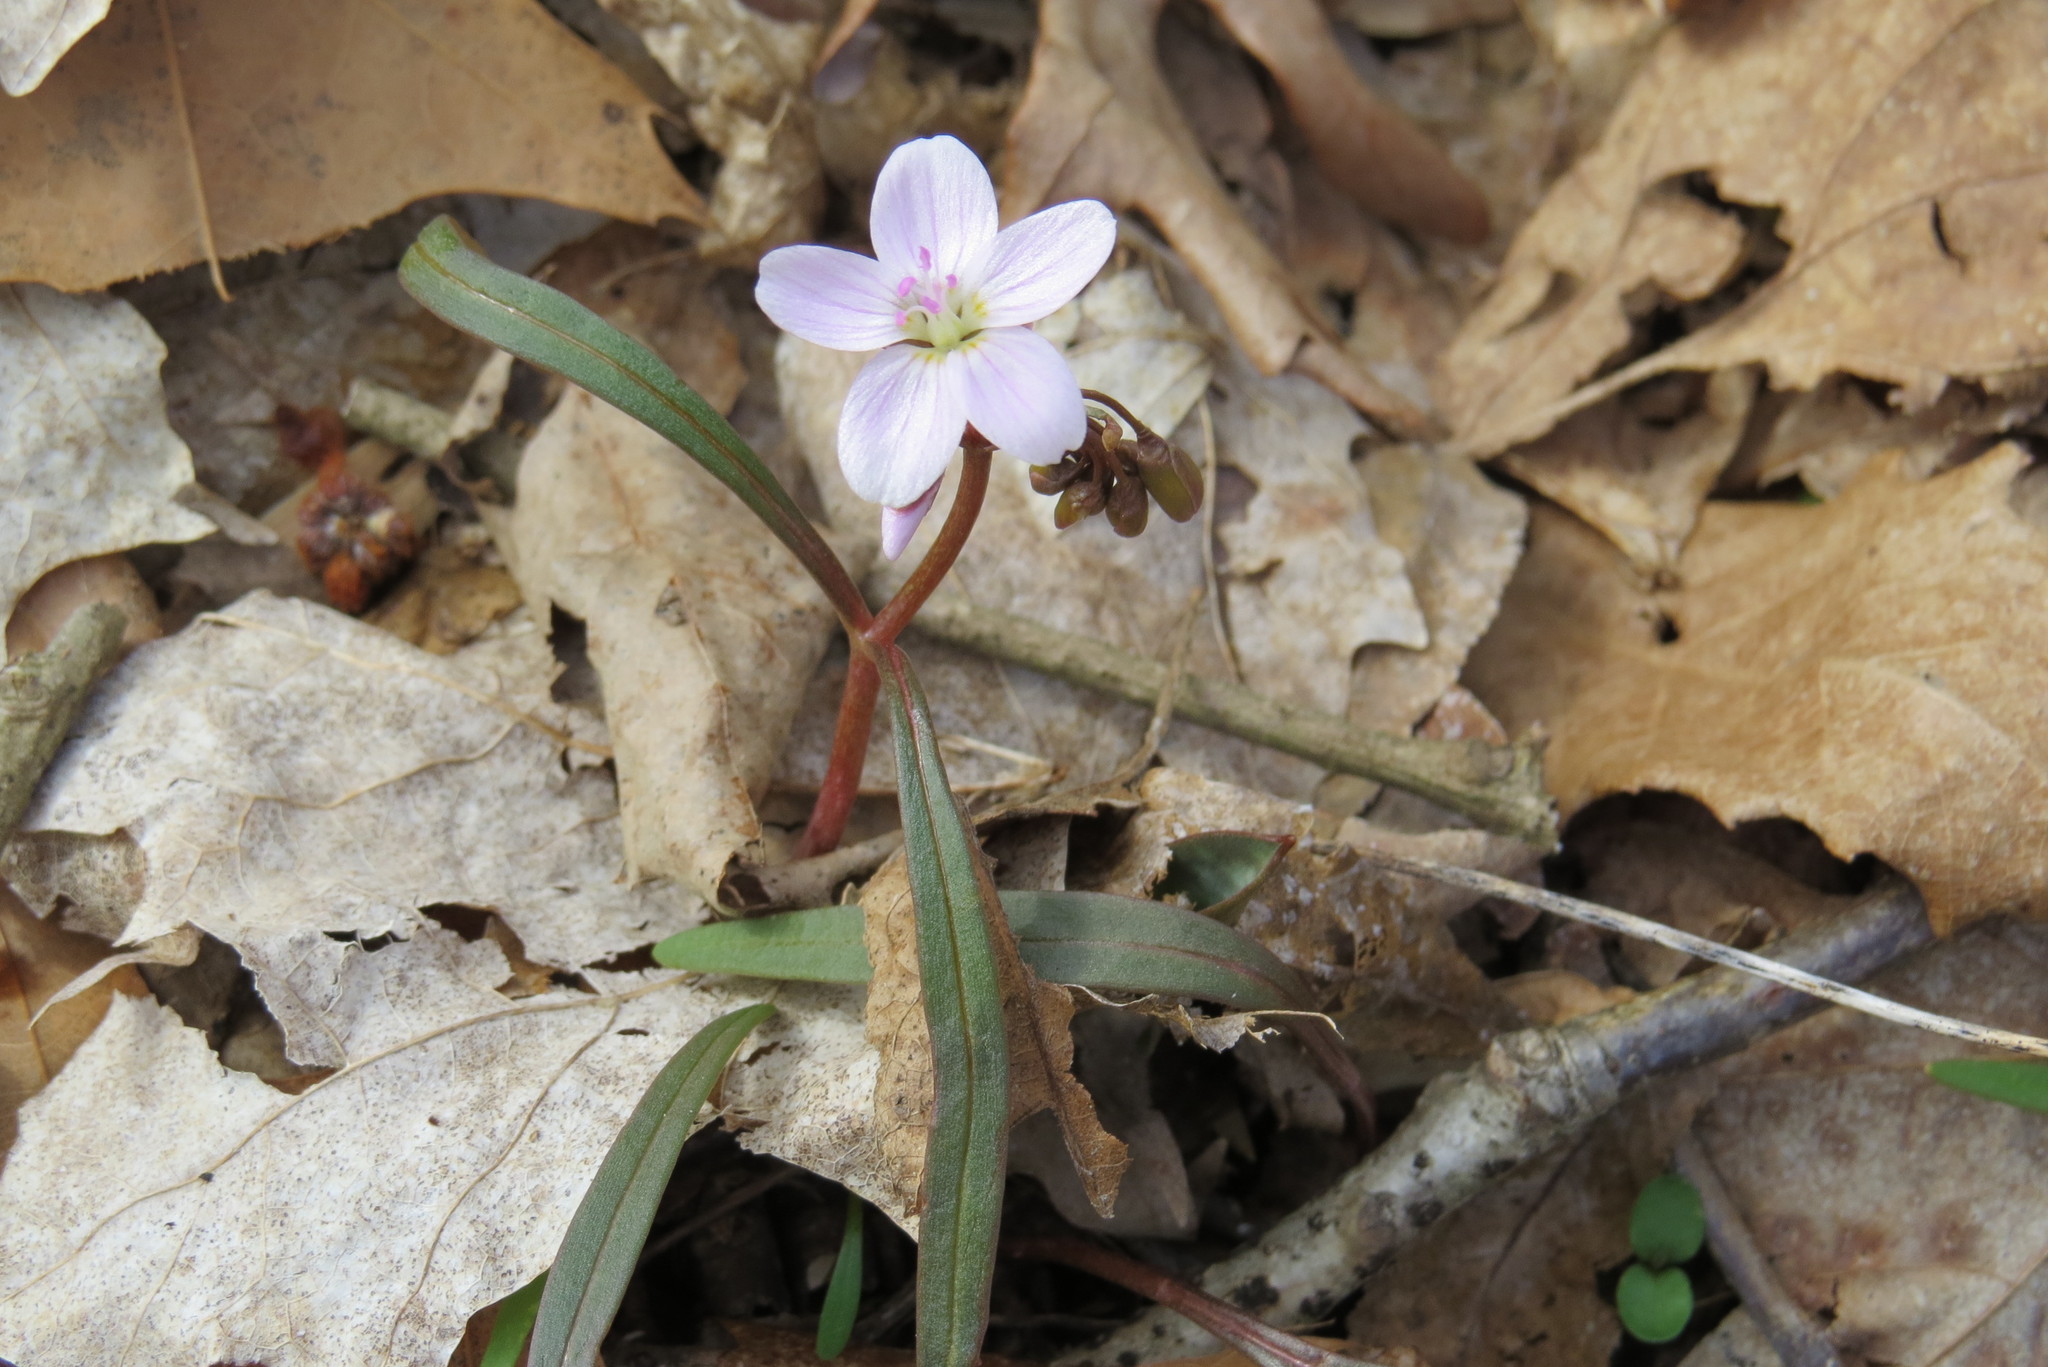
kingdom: Plantae
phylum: Tracheophyta
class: Magnoliopsida
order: Caryophyllales
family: Montiaceae
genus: Claytonia
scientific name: Claytonia virginica
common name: Virginia springbeauty
